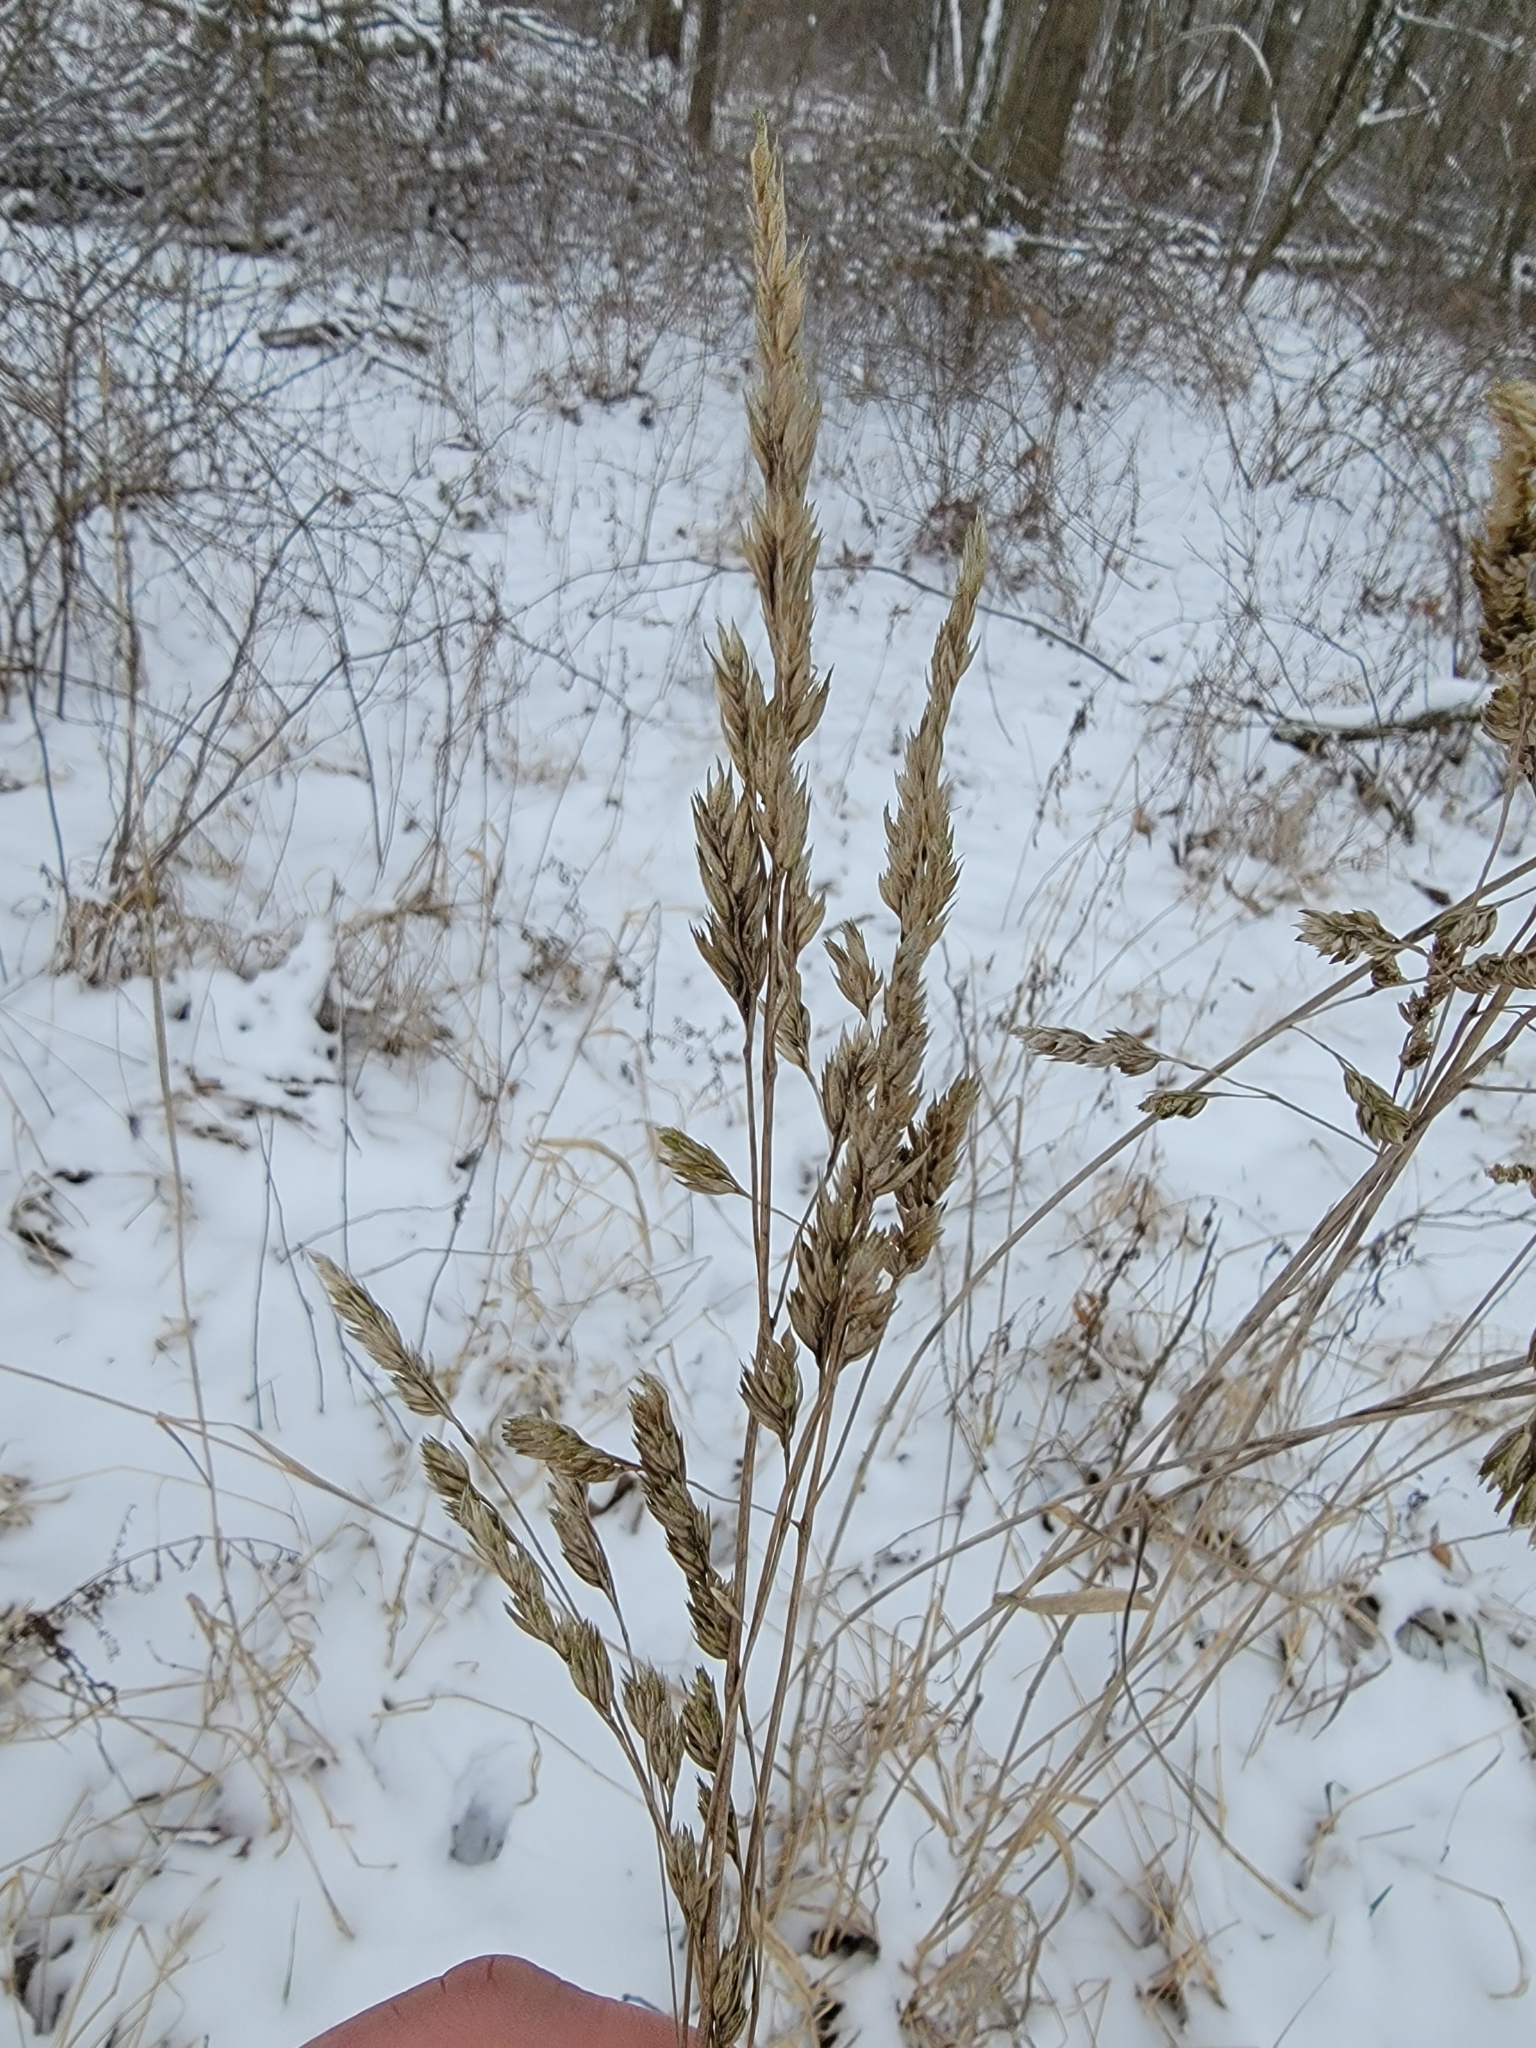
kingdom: Plantae
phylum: Tracheophyta
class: Liliopsida
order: Poales
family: Poaceae
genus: Phalaris
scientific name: Phalaris arundinacea
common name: Reed canary-grass
